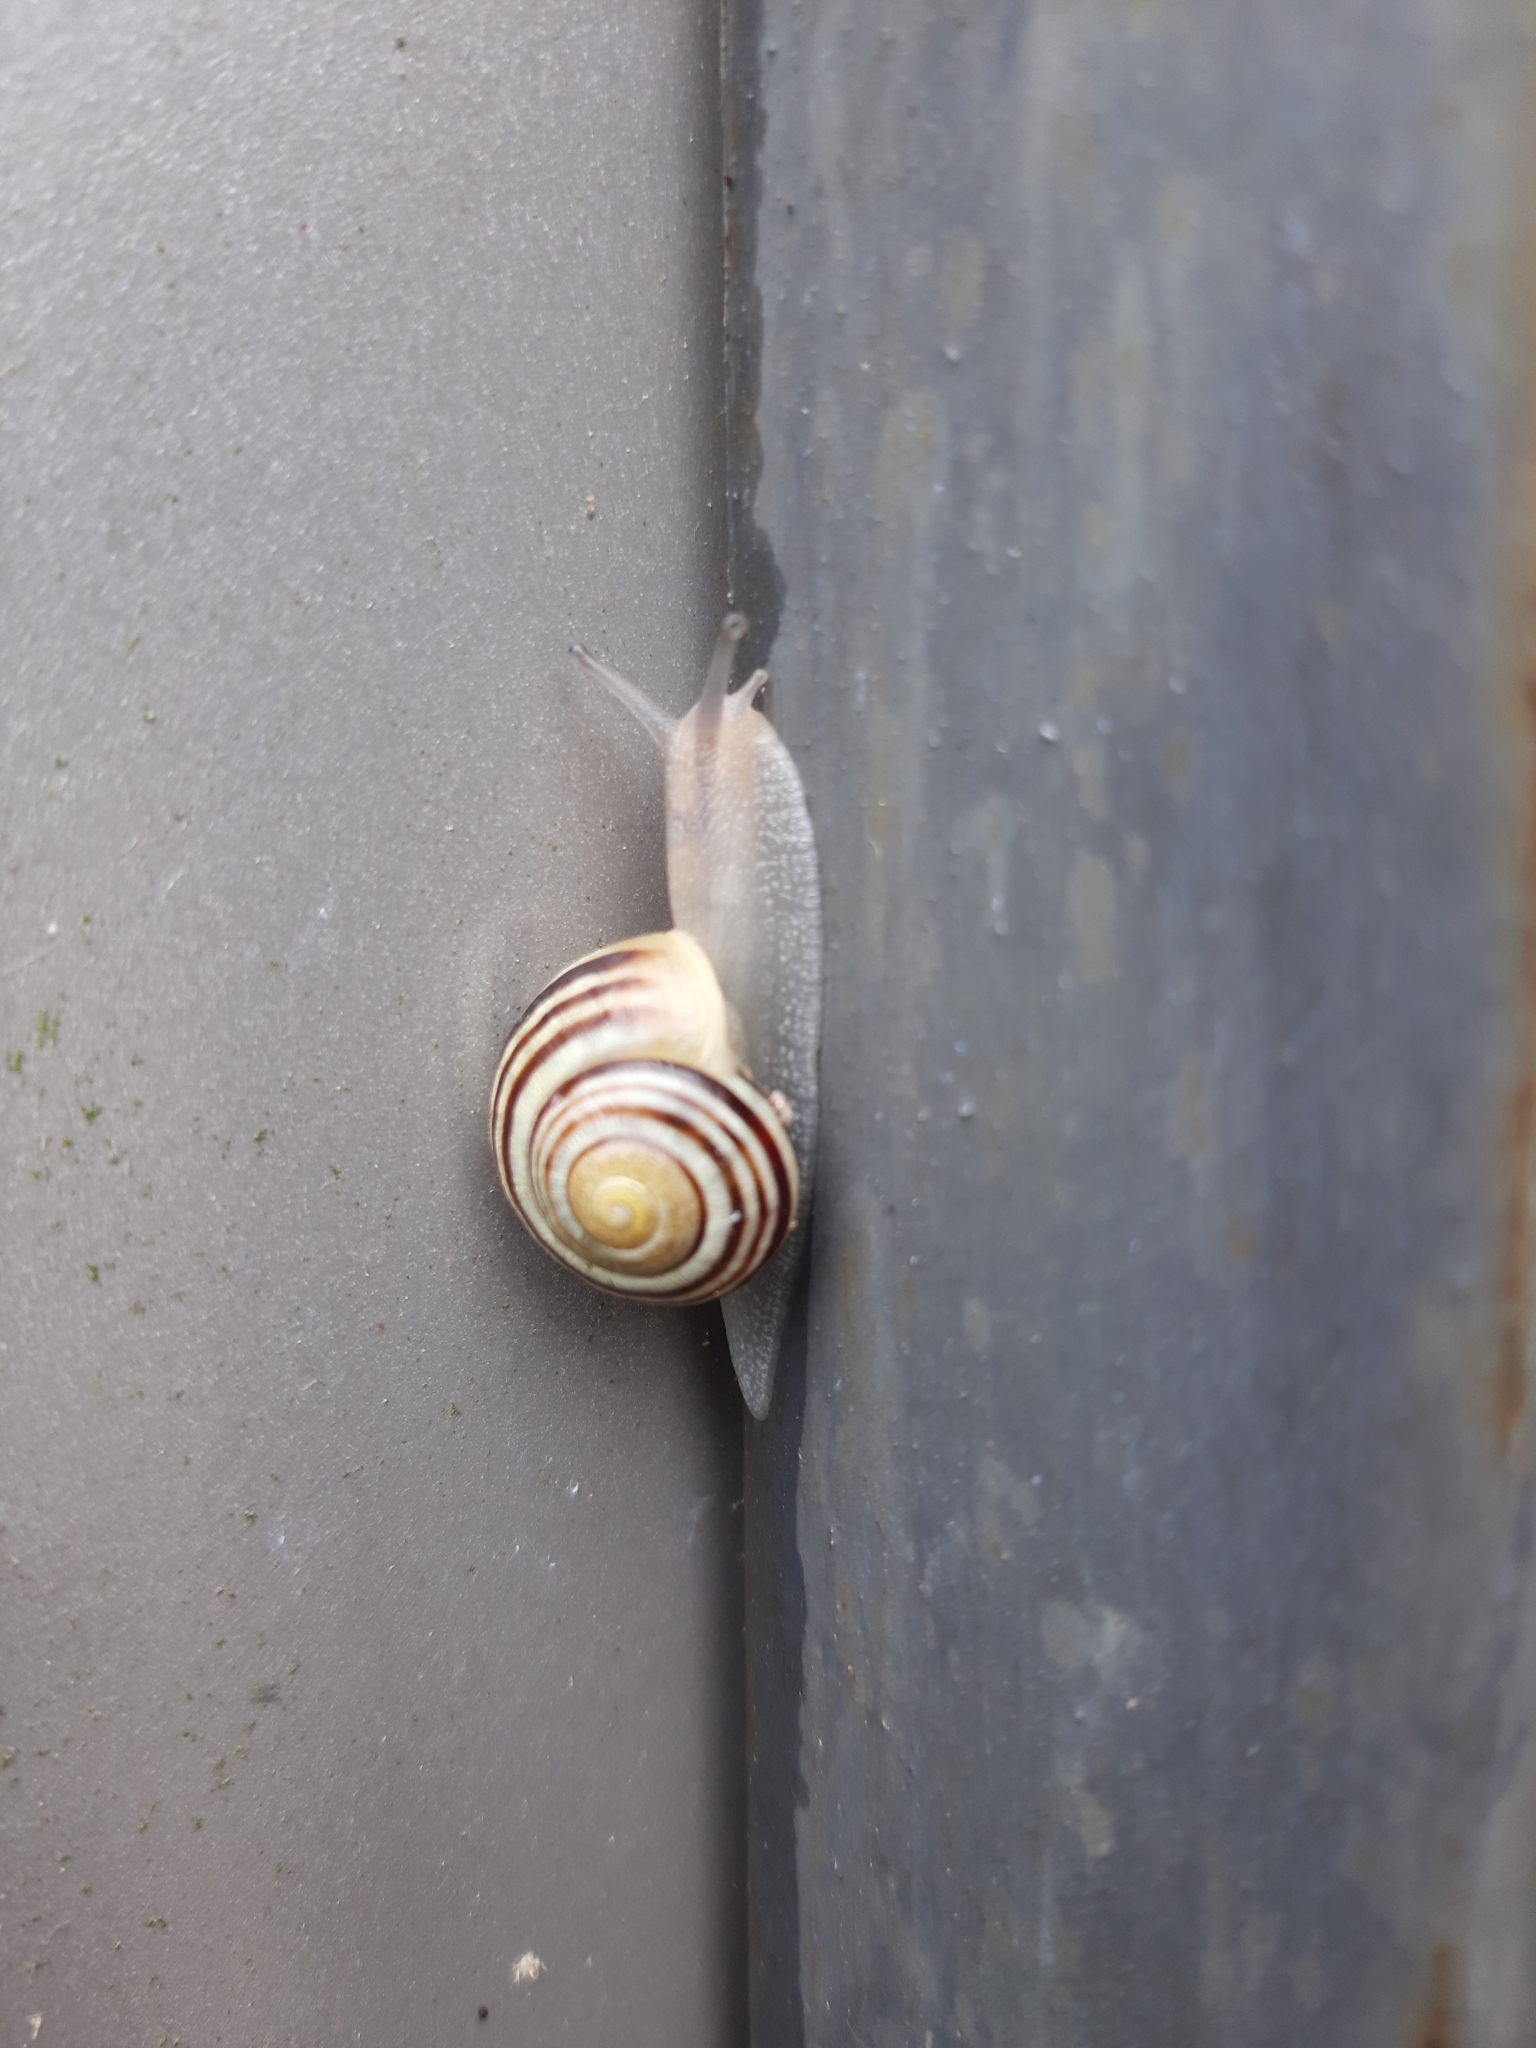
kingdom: Animalia
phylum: Mollusca
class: Gastropoda
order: Stylommatophora
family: Helicidae
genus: Cepaea
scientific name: Cepaea
